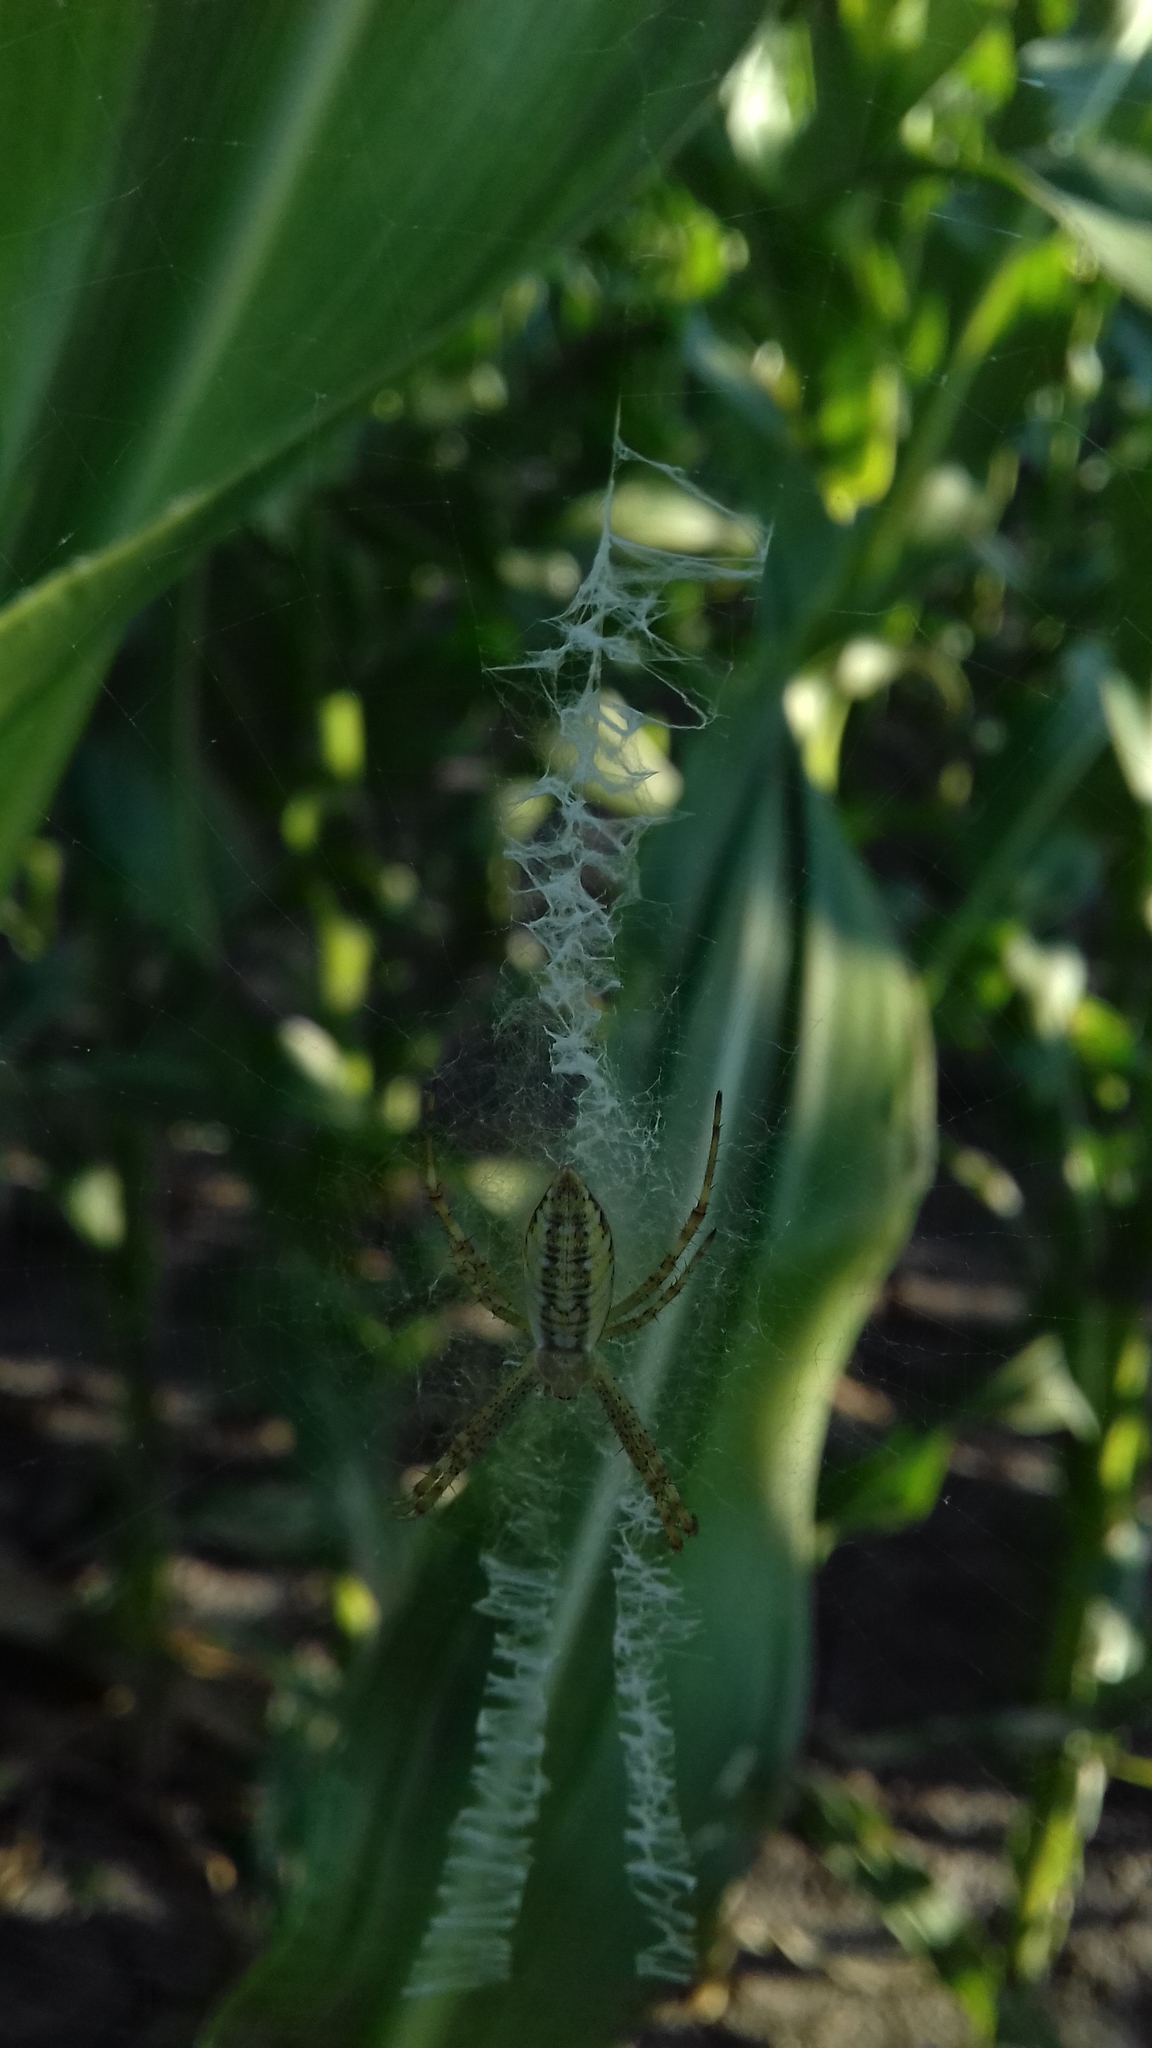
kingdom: Animalia
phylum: Arthropoda
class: Arachnida
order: Araneae
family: Araneidae
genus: Argiope
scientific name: Argiope bruennichi
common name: Wasp spider
